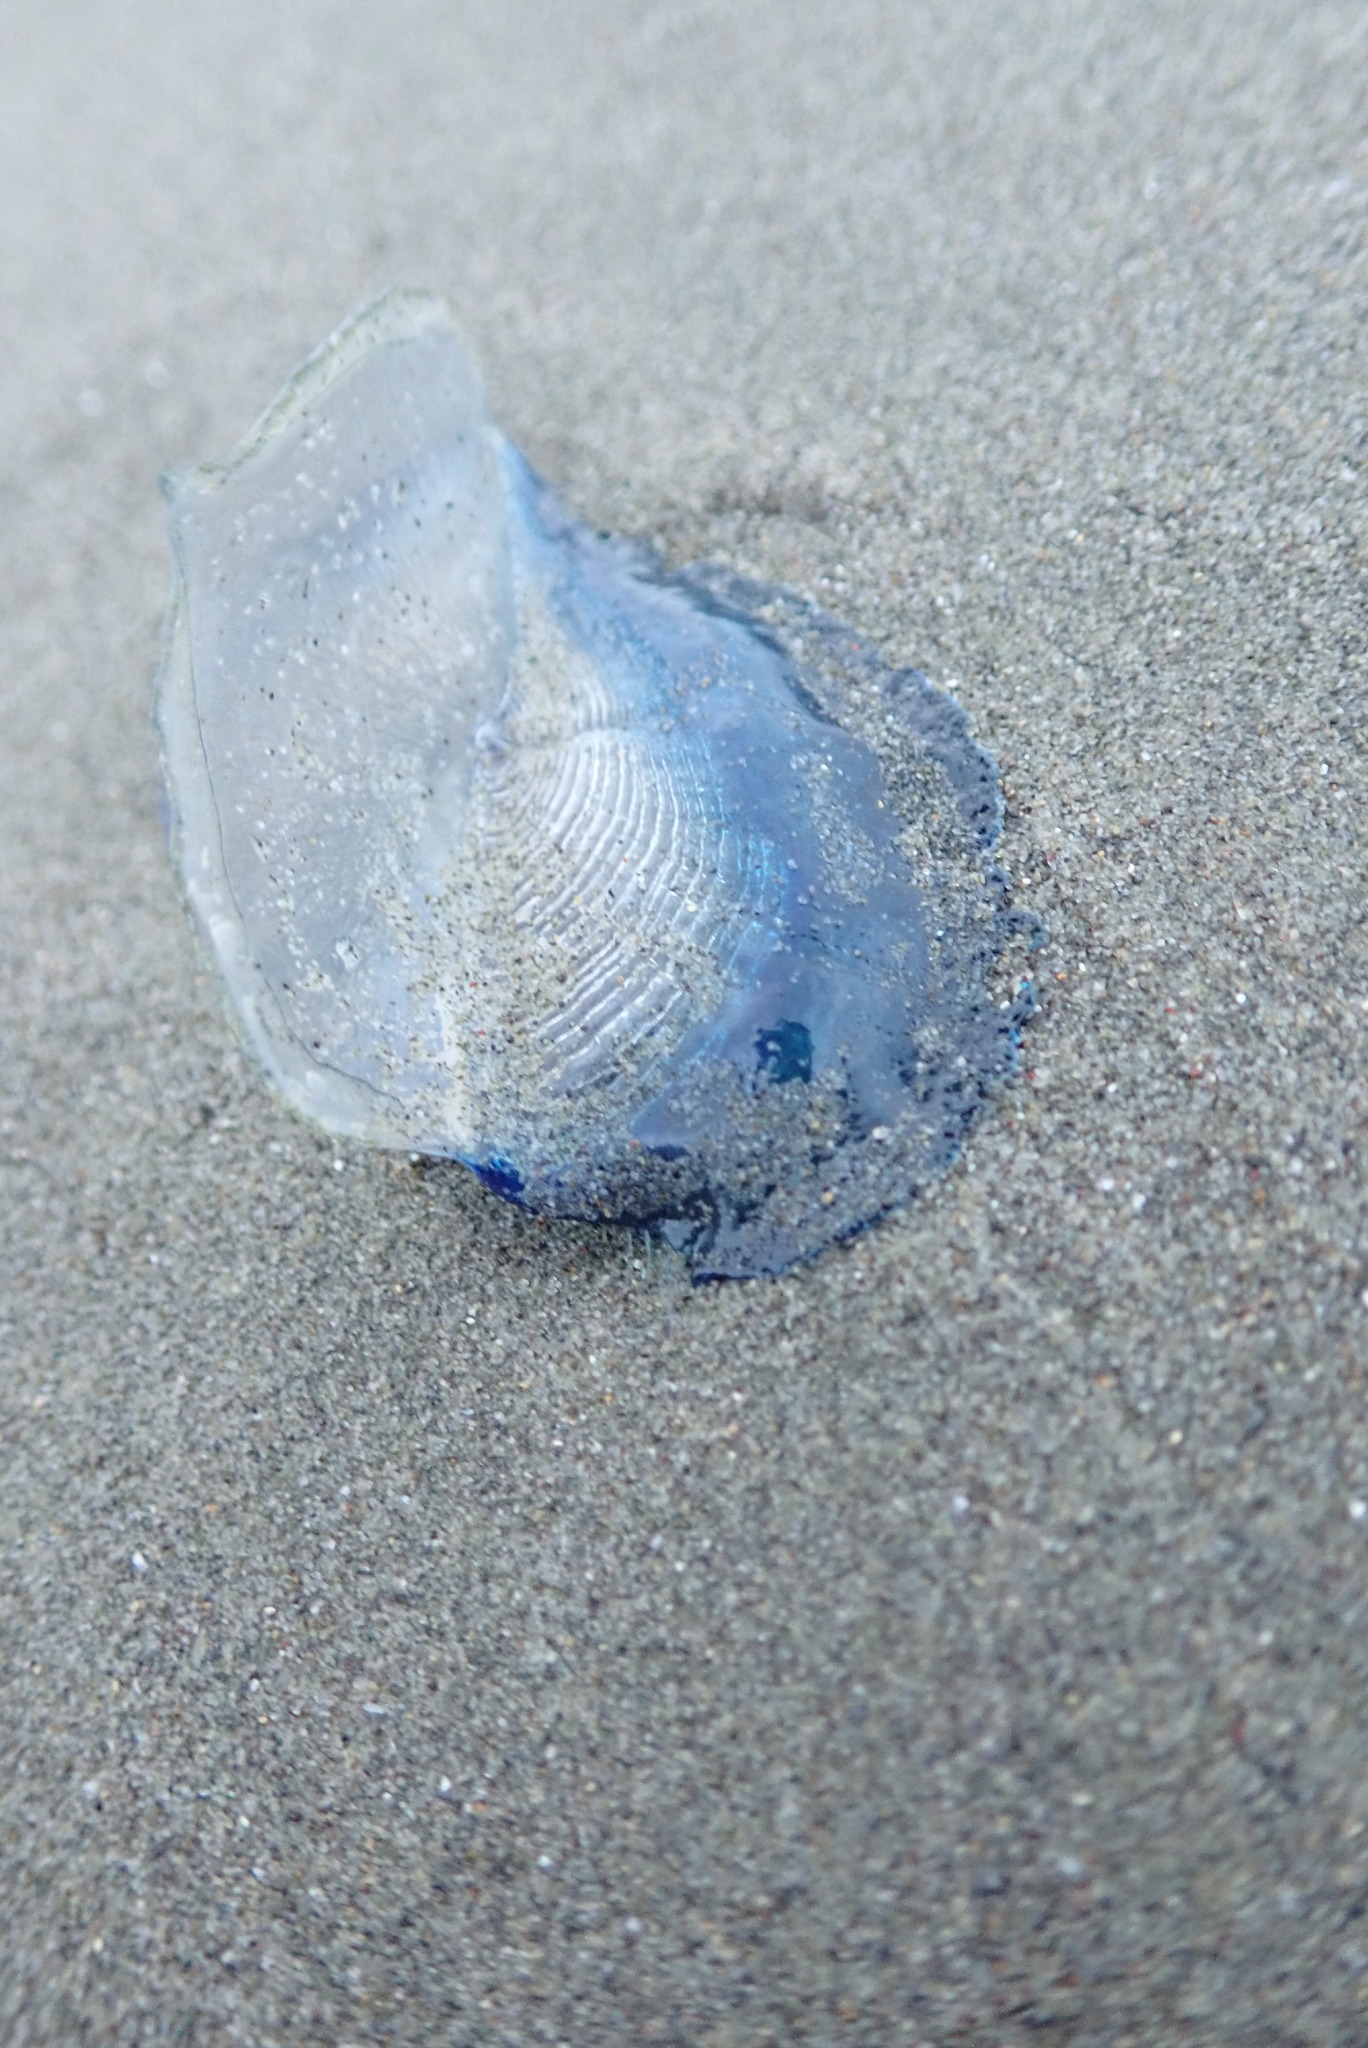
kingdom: Animalia
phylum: Cnidaria
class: Hydrozoa
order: Anthoathecata
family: Porpitidae
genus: Velella
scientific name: Velella velella
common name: By-the-wind-sailor
